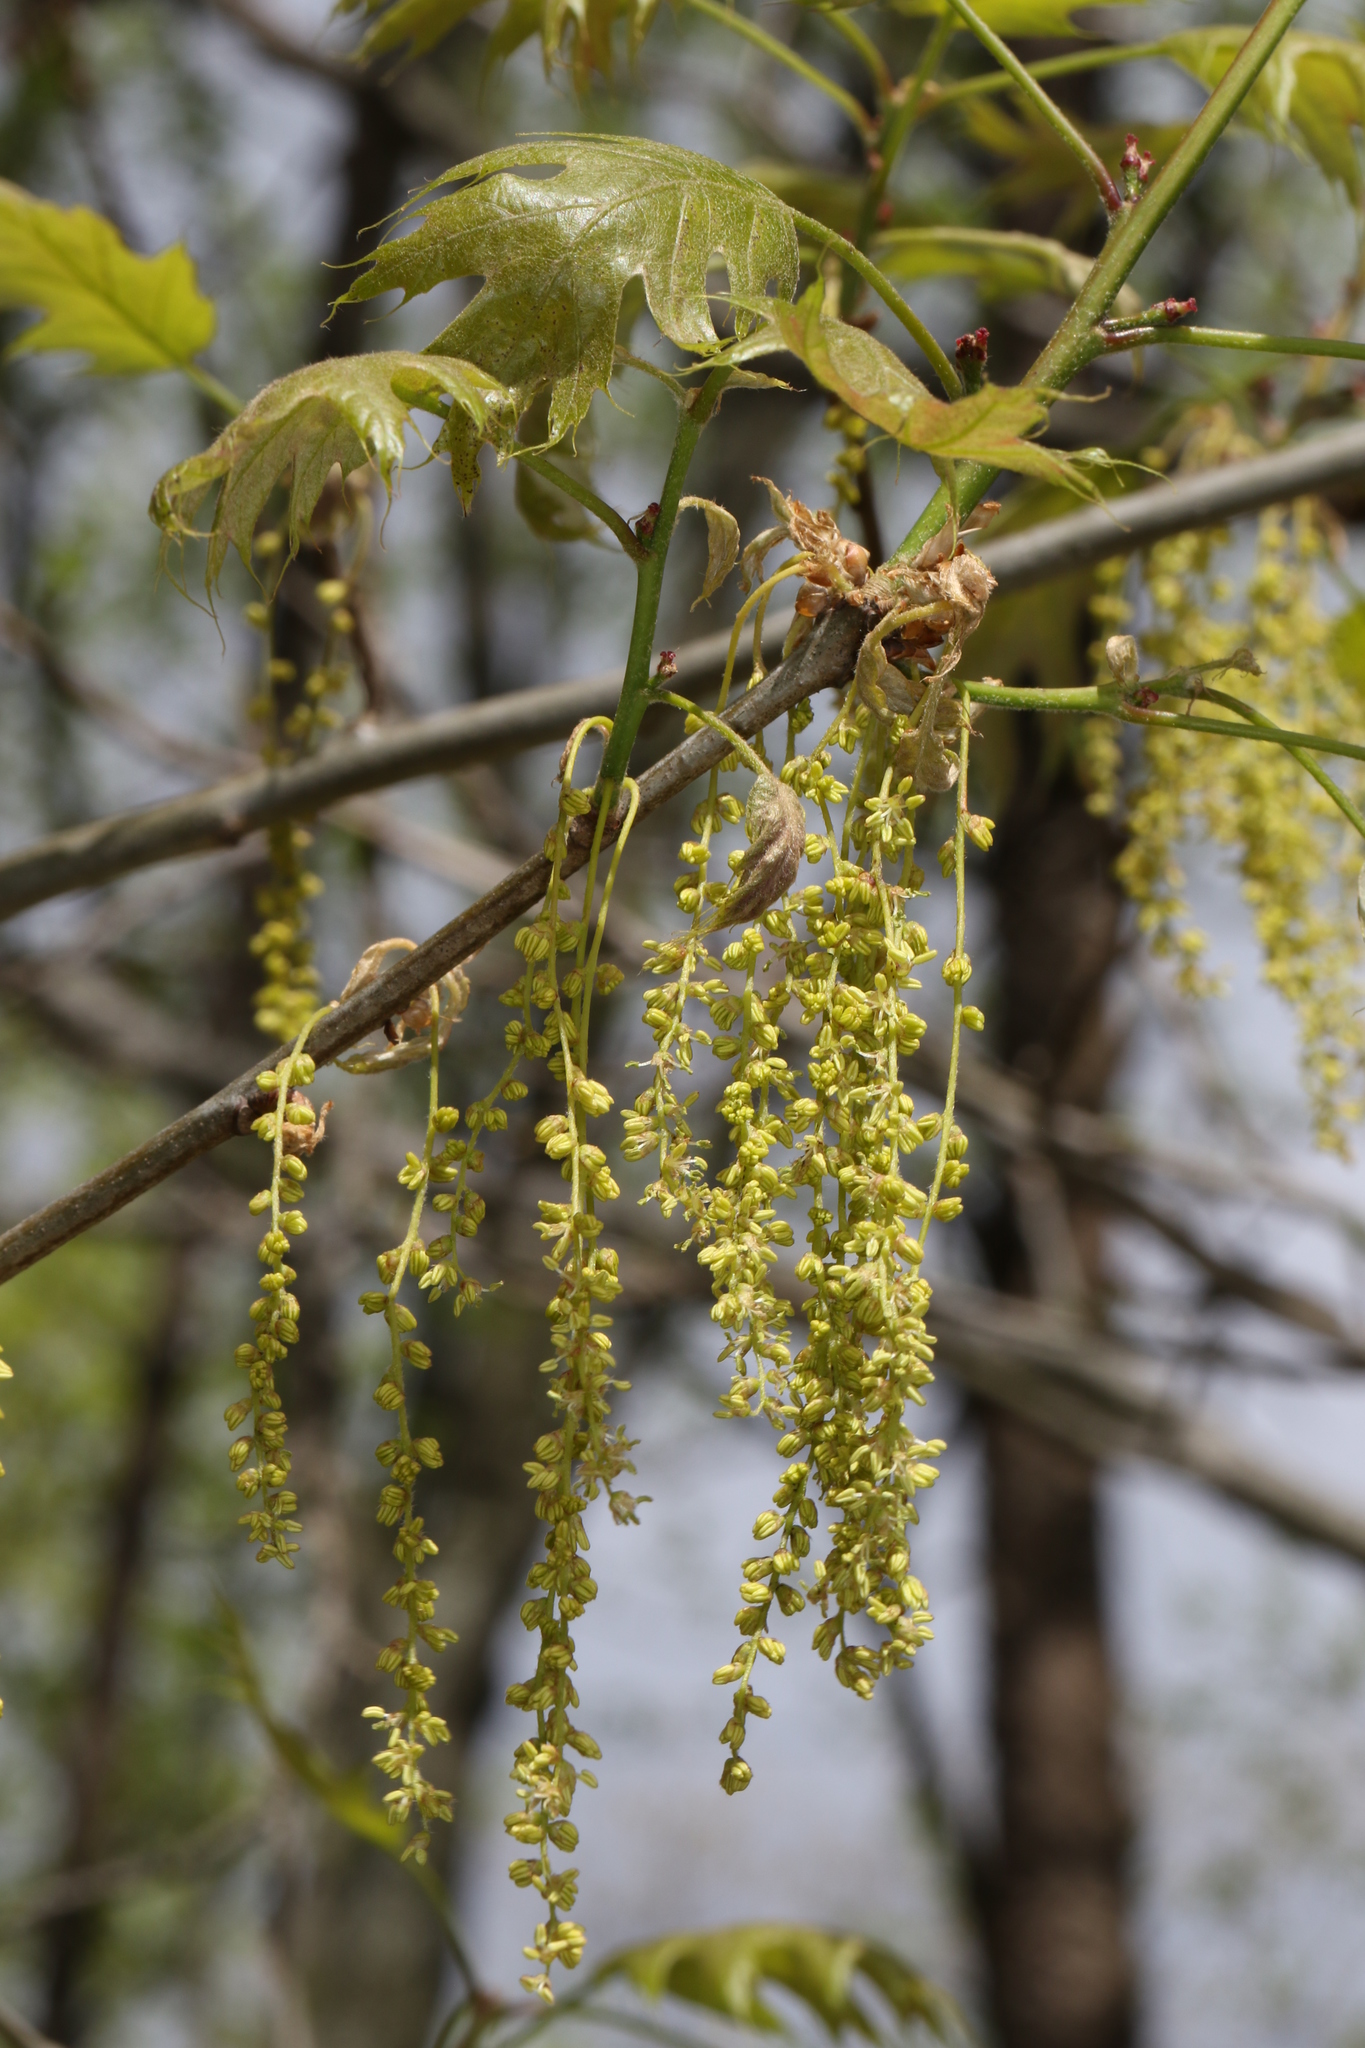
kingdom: Plantae
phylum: Tracheophyta
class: Magnoliopsida
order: Fagales
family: Fagaceae
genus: Quercus
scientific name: Quercus rubra
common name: Red oak
